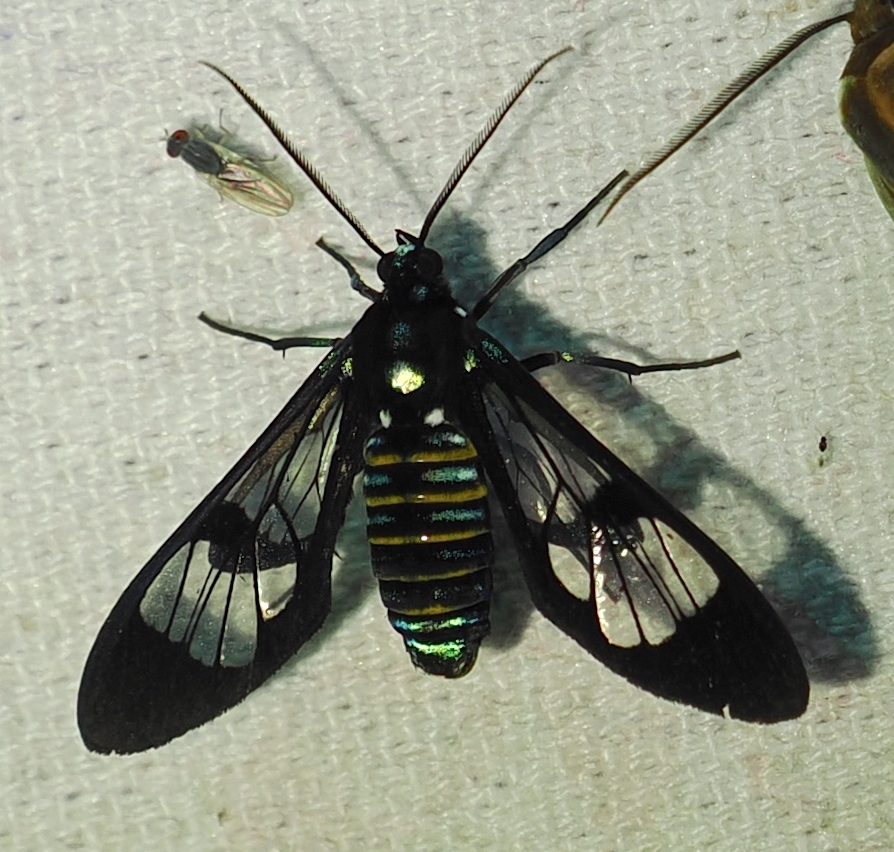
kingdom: Animalia
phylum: Arthropoda
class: Insecta
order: Lepidoptera
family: Erebidae
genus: Gymnelia
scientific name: Gymnelia nobilis
